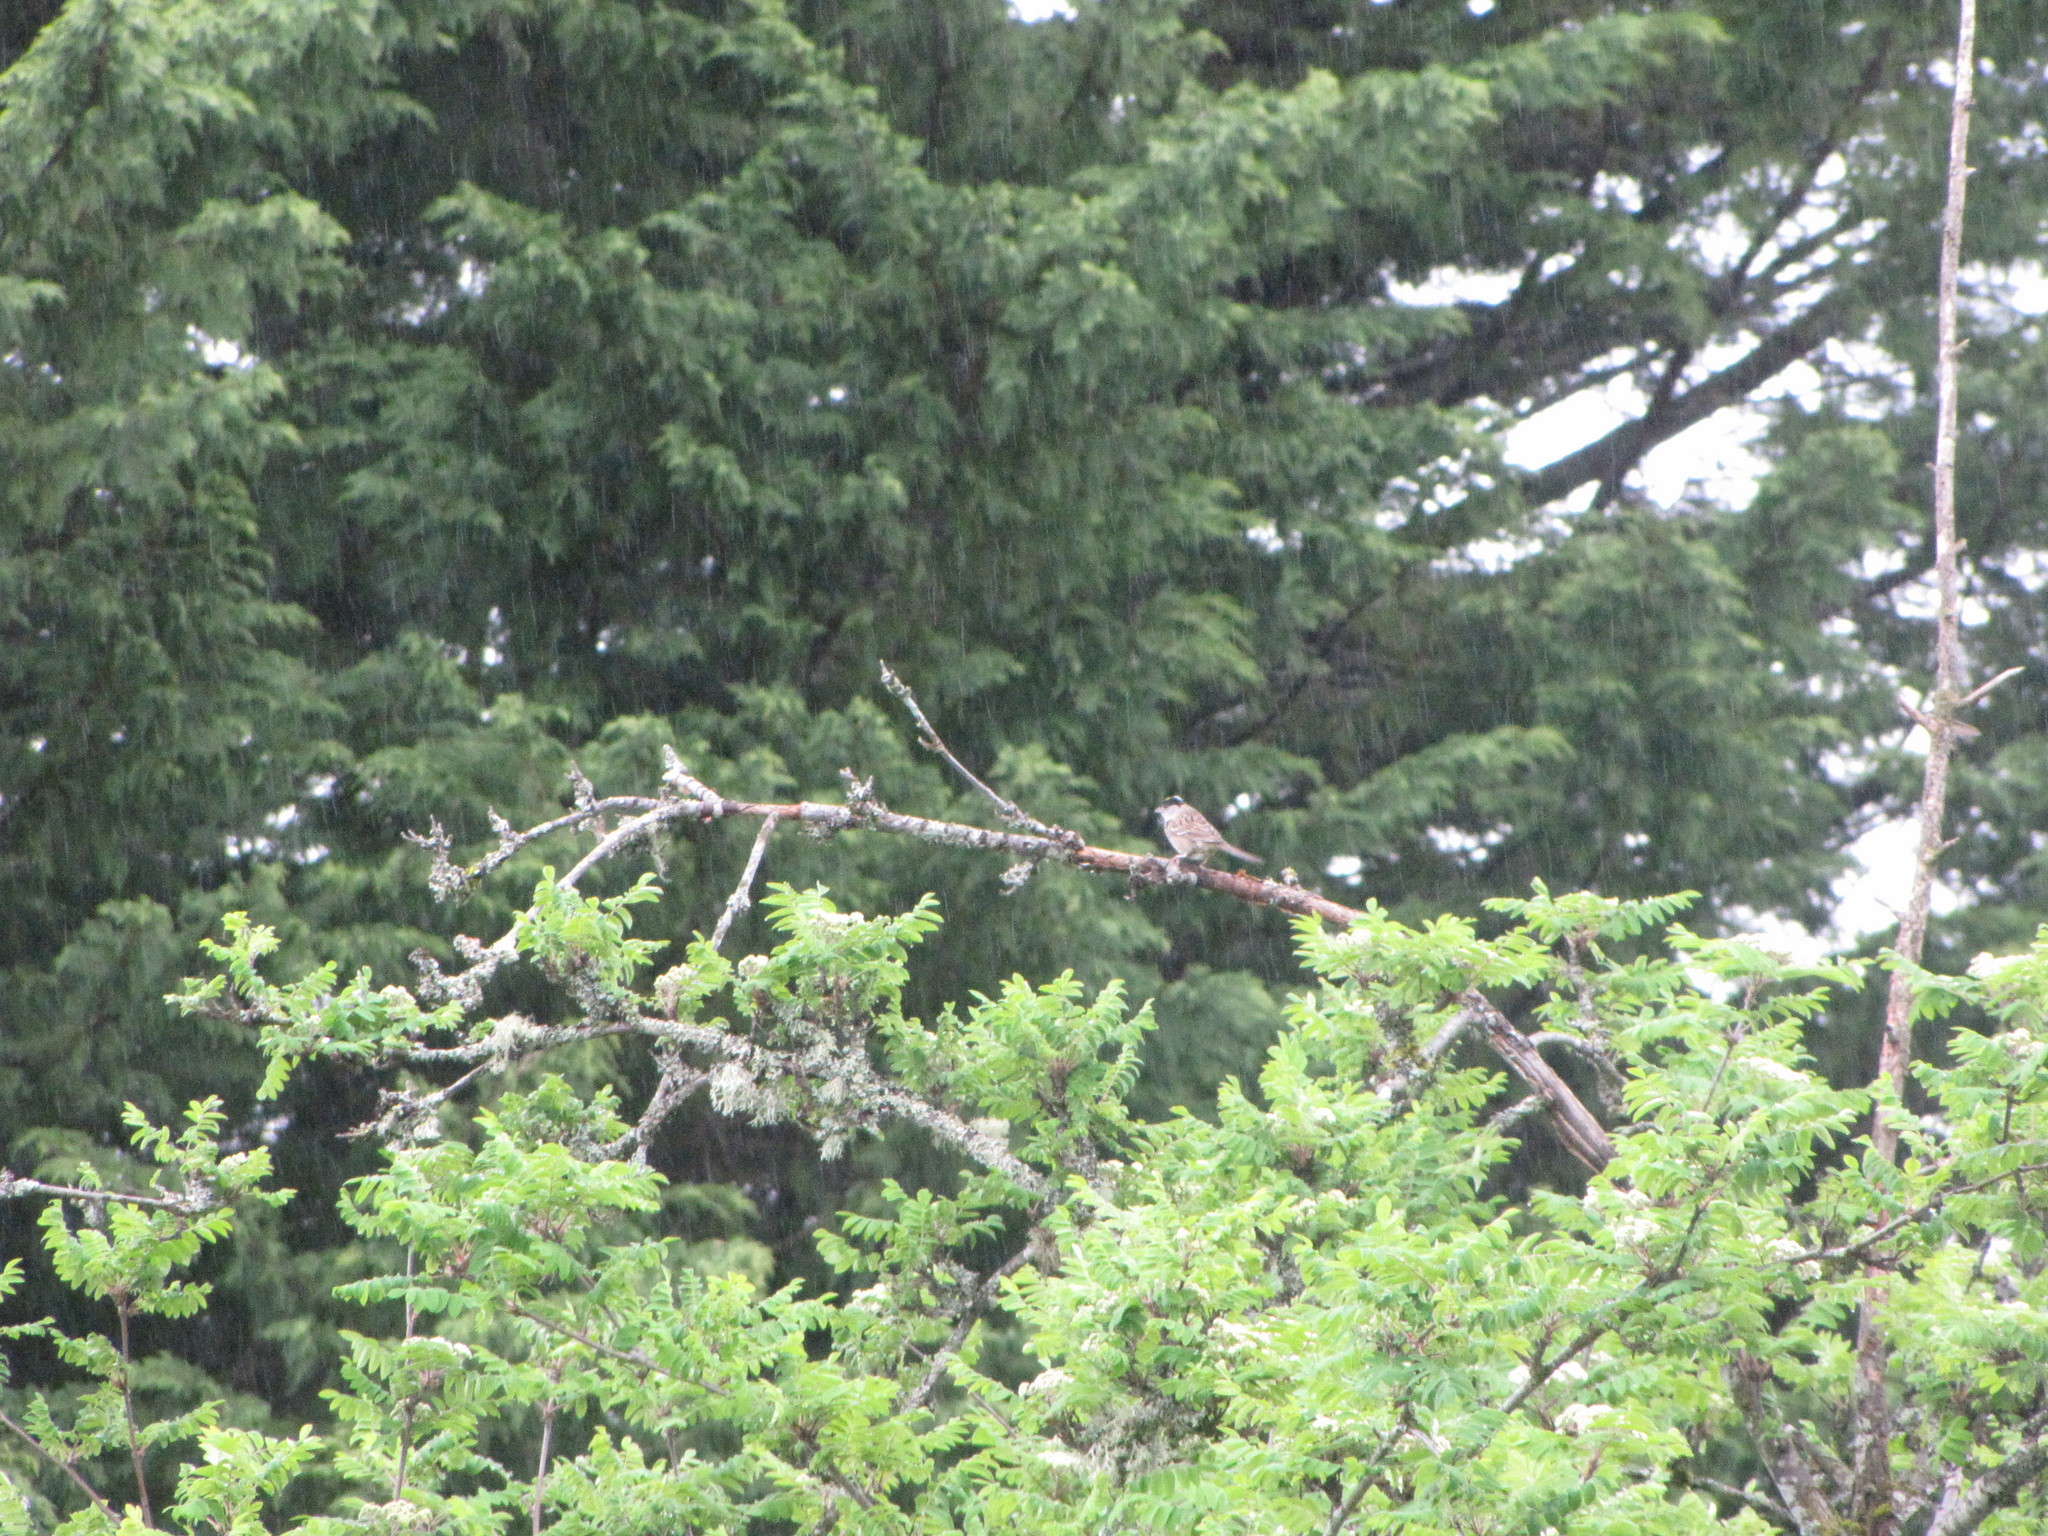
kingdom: Animalia
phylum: Chordata
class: Aves
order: Passeriformes
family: Passerellidae
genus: Zonotrichia
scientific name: Zonotrichia atricapilla
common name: Golden-crowned sparrow
